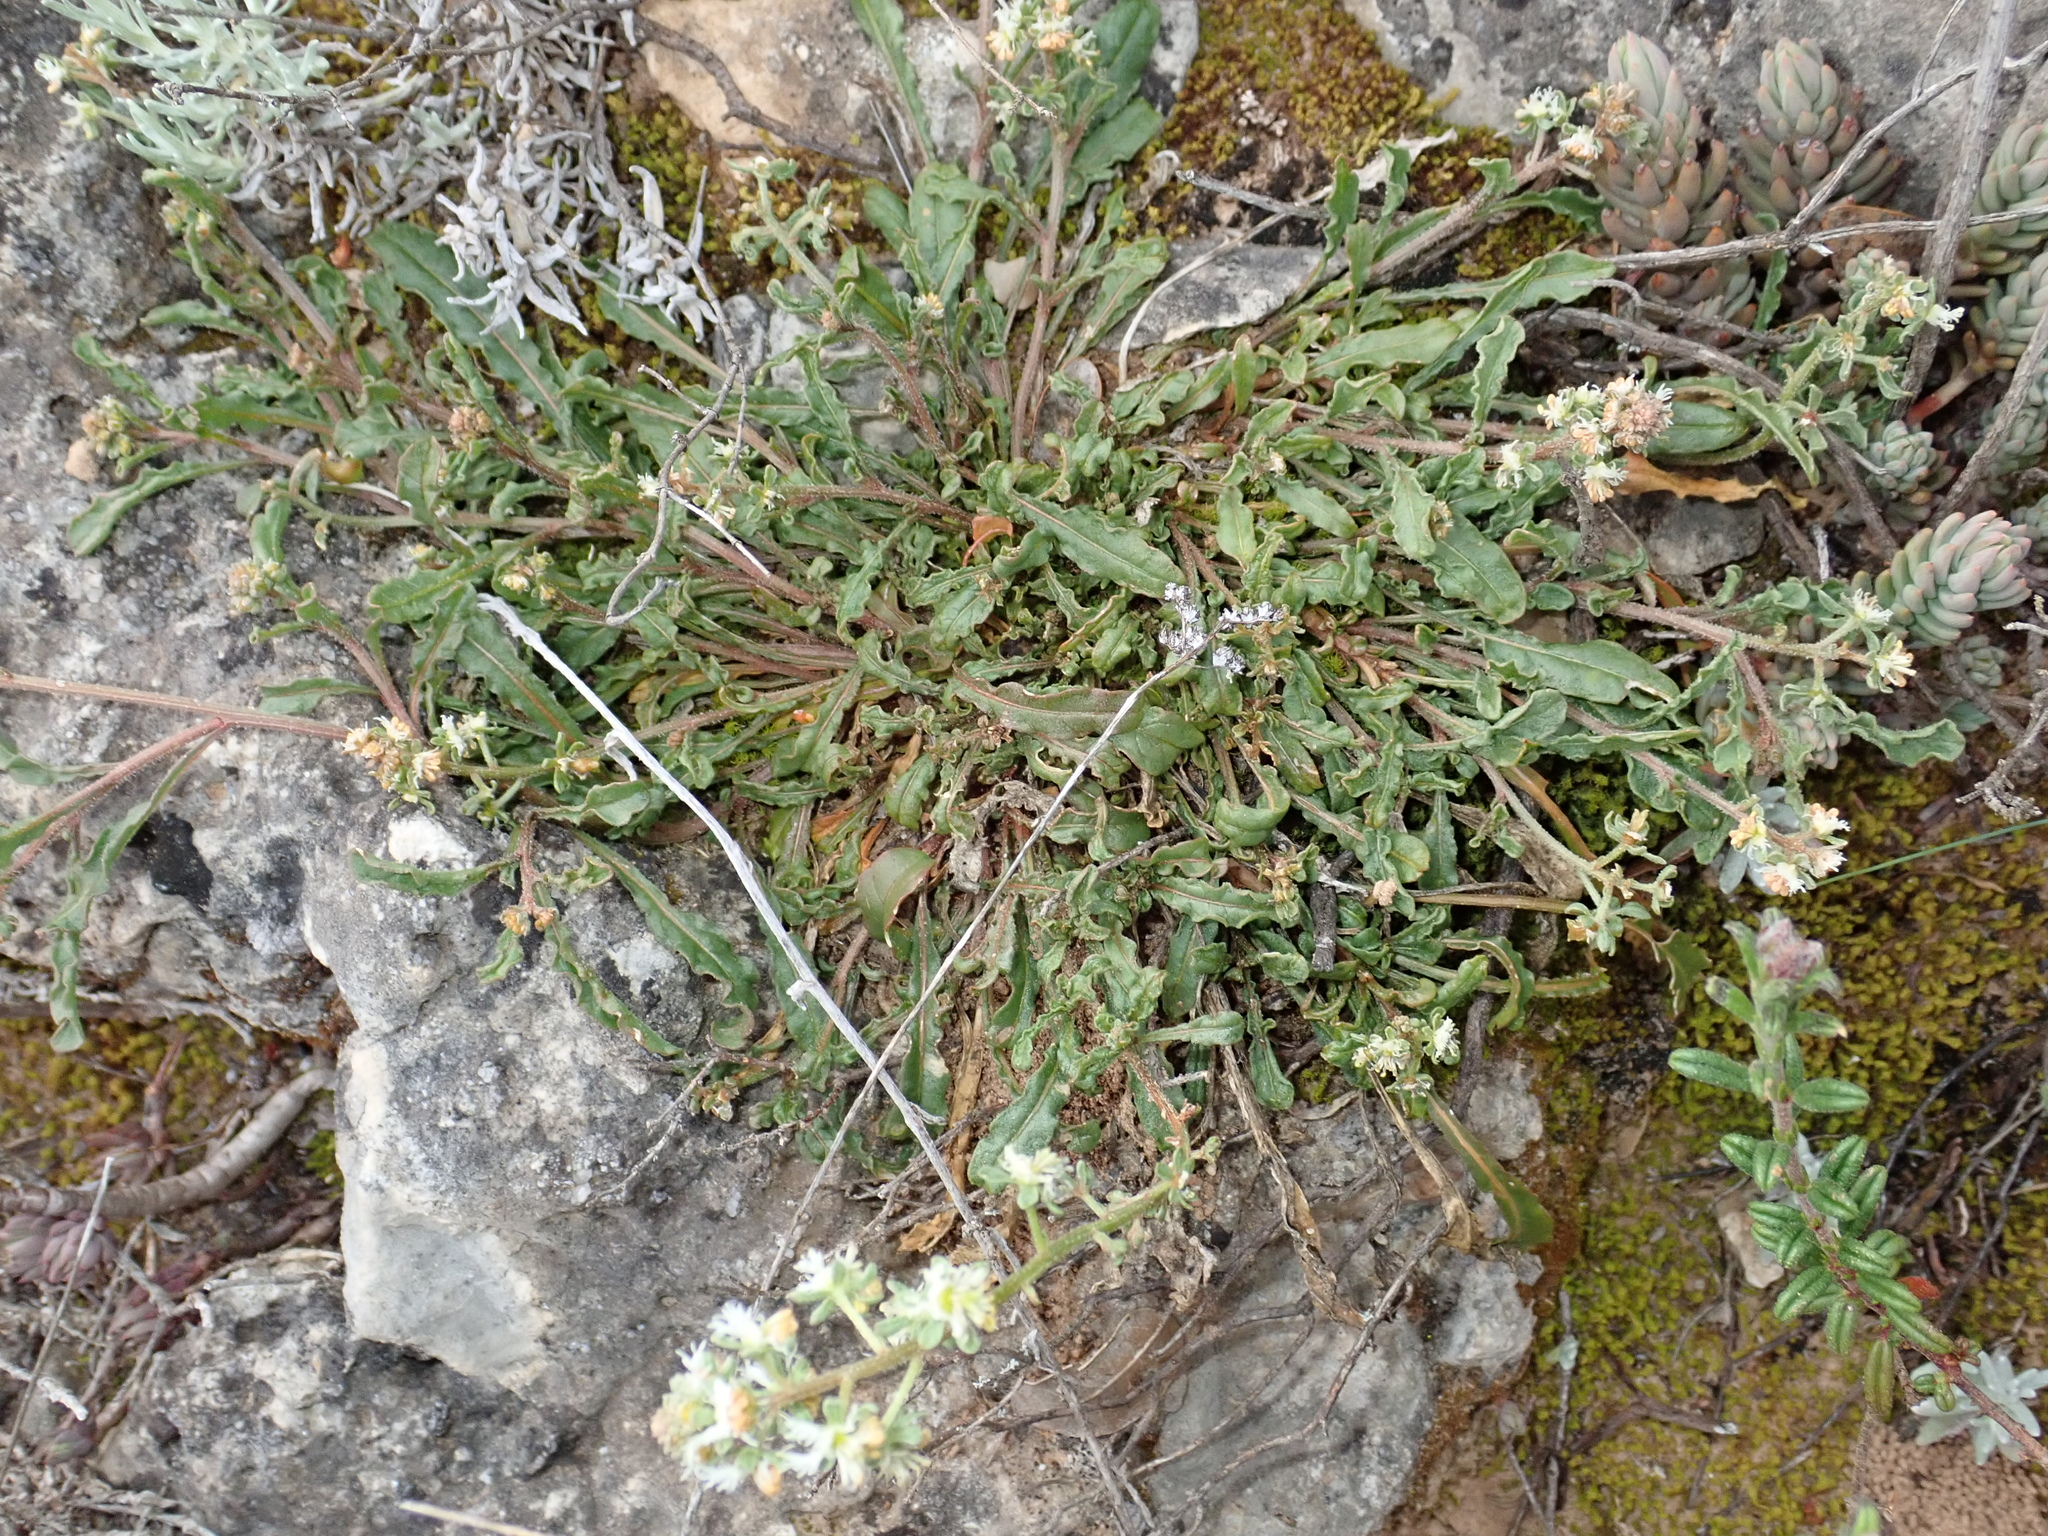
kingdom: Plantae
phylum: Tracheophyta
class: Magnoliopsida
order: Brassicales
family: Resedaceae
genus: Reseda
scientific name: Reseda phyteuma
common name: Corn mignonette
